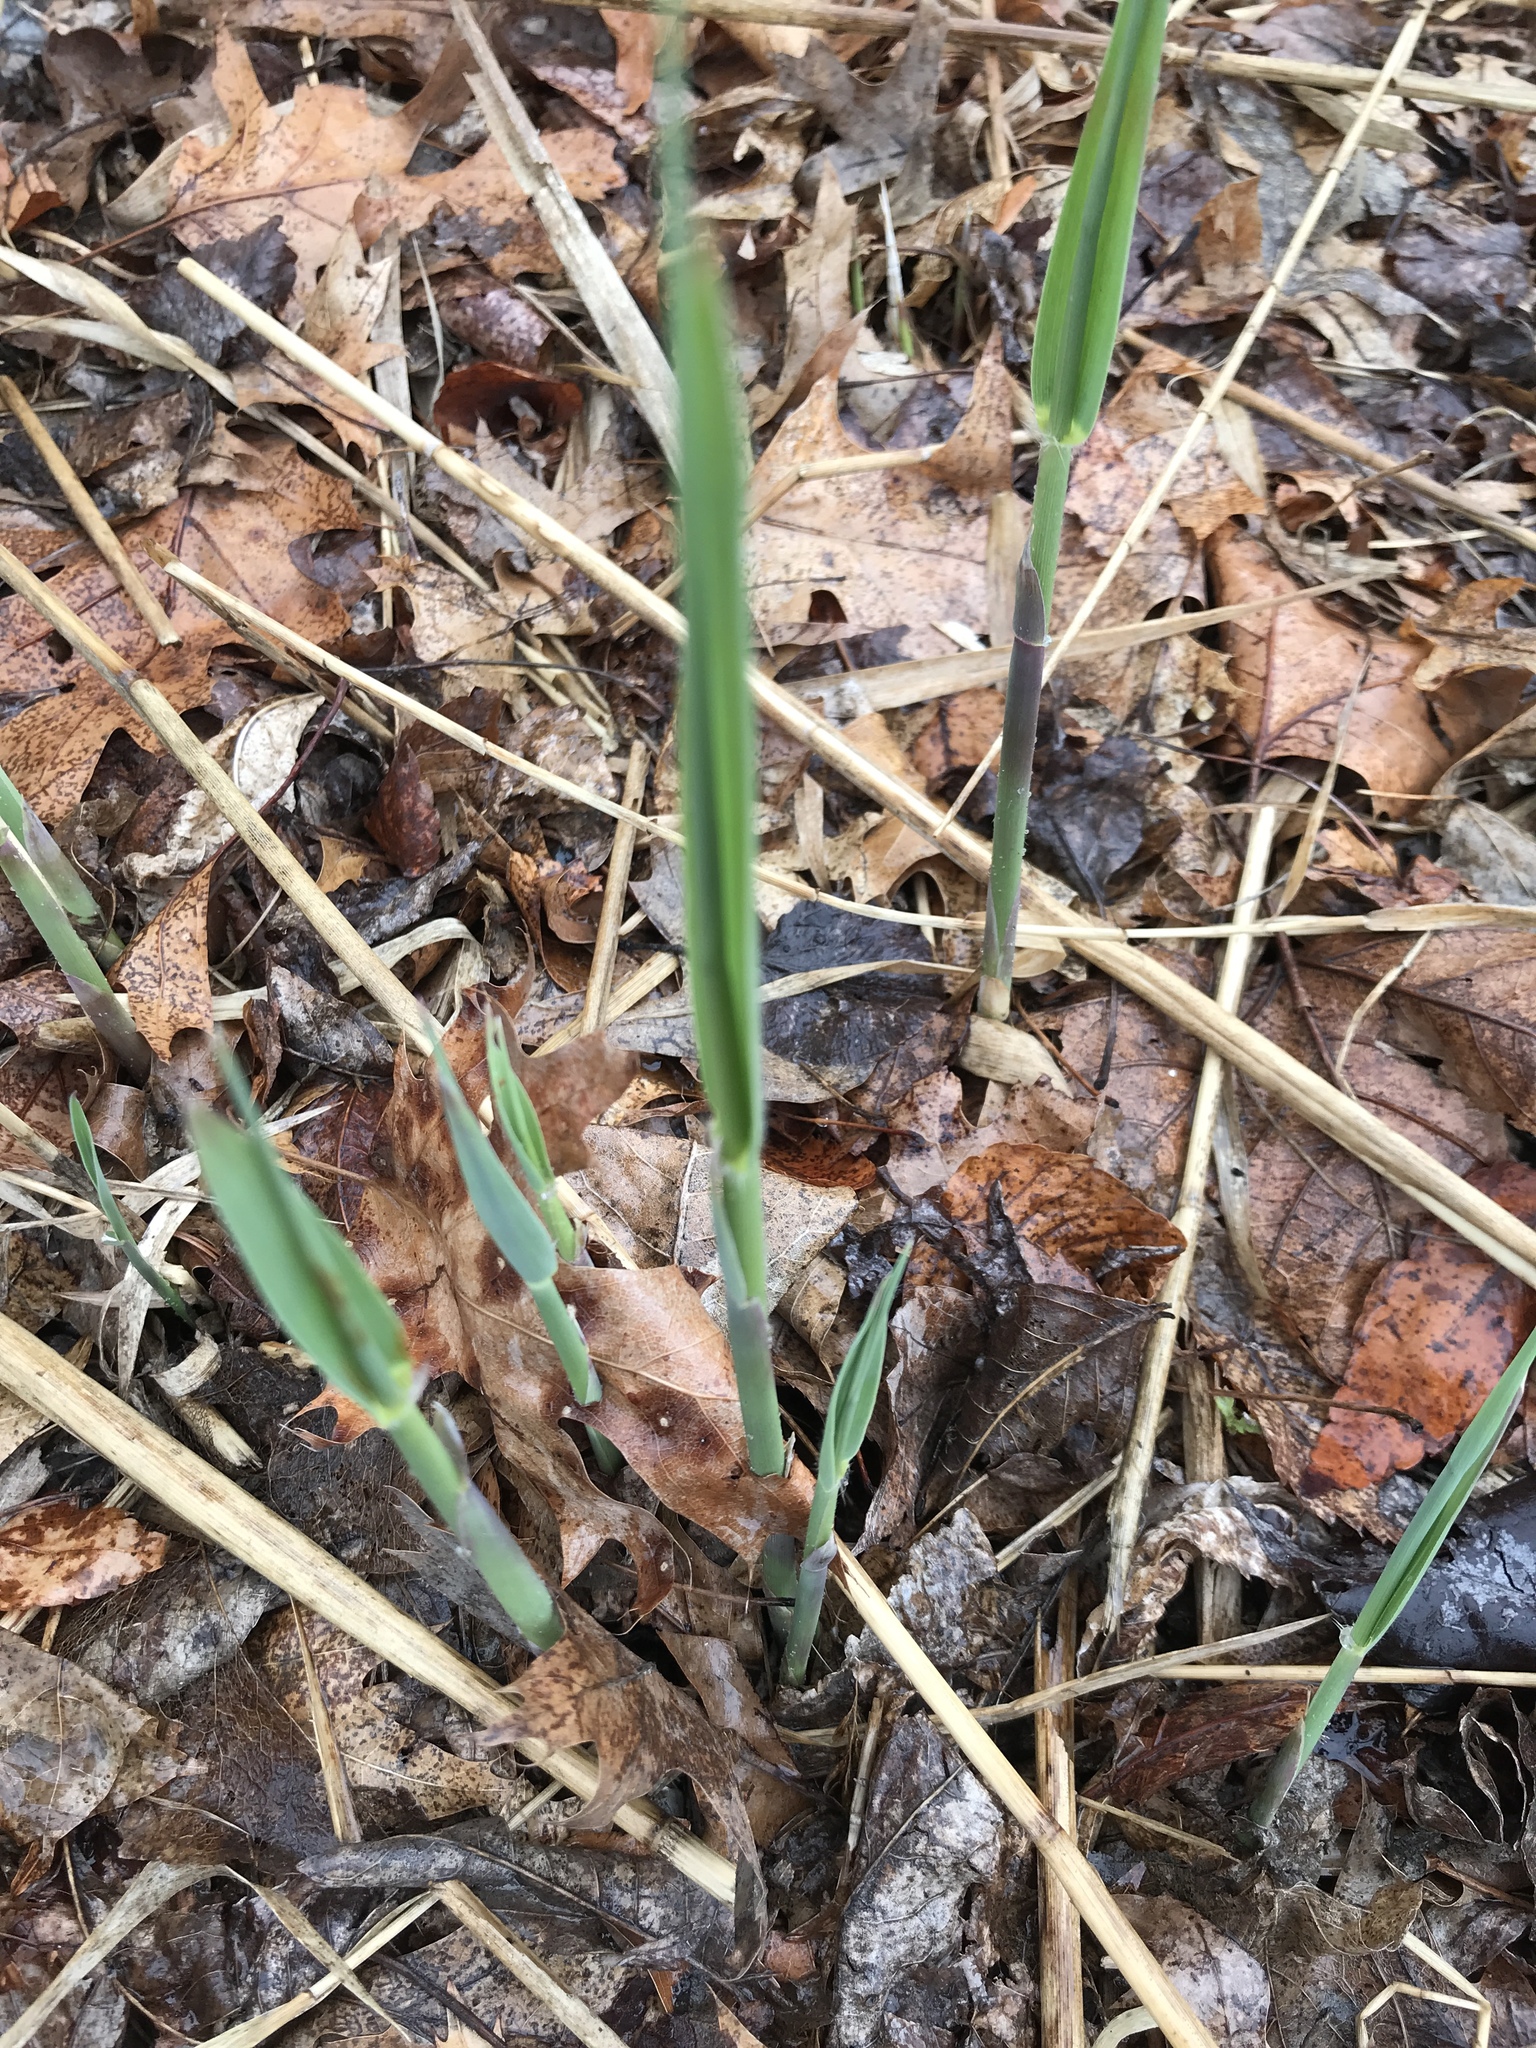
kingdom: Plantae
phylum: Tracheophyta
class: Liliopsida
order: Poales
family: Poaceae
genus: Phragmites
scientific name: Phragmites australis
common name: Common reed
